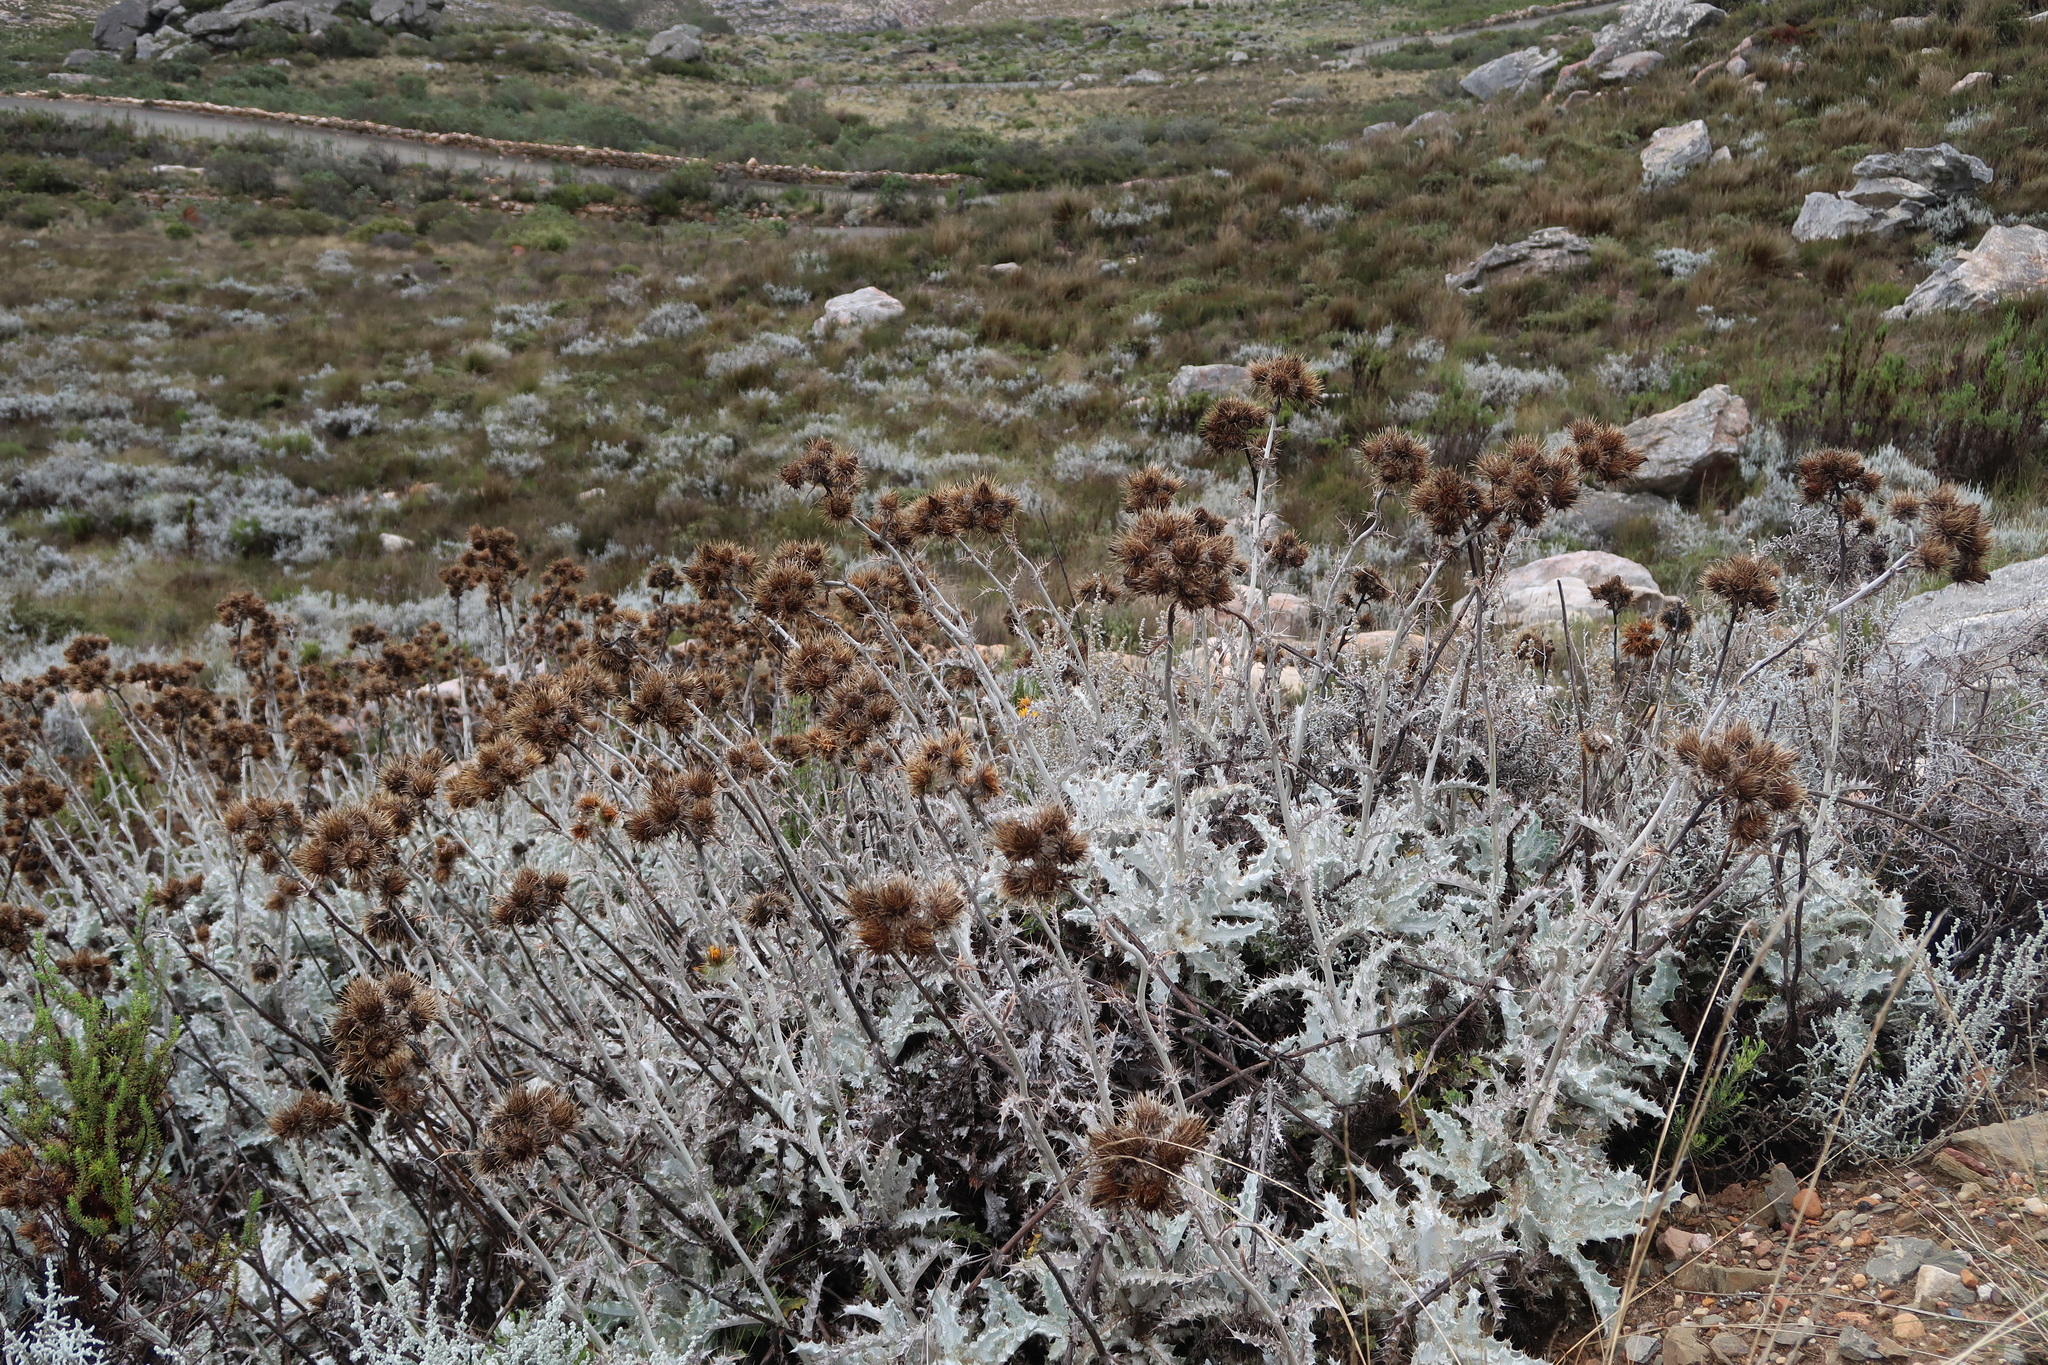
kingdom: Plantae
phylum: Tracheophyta
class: Magnoliopsida
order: Asterales
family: Asteraceae
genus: Berkheya
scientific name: Berkheya francisci
